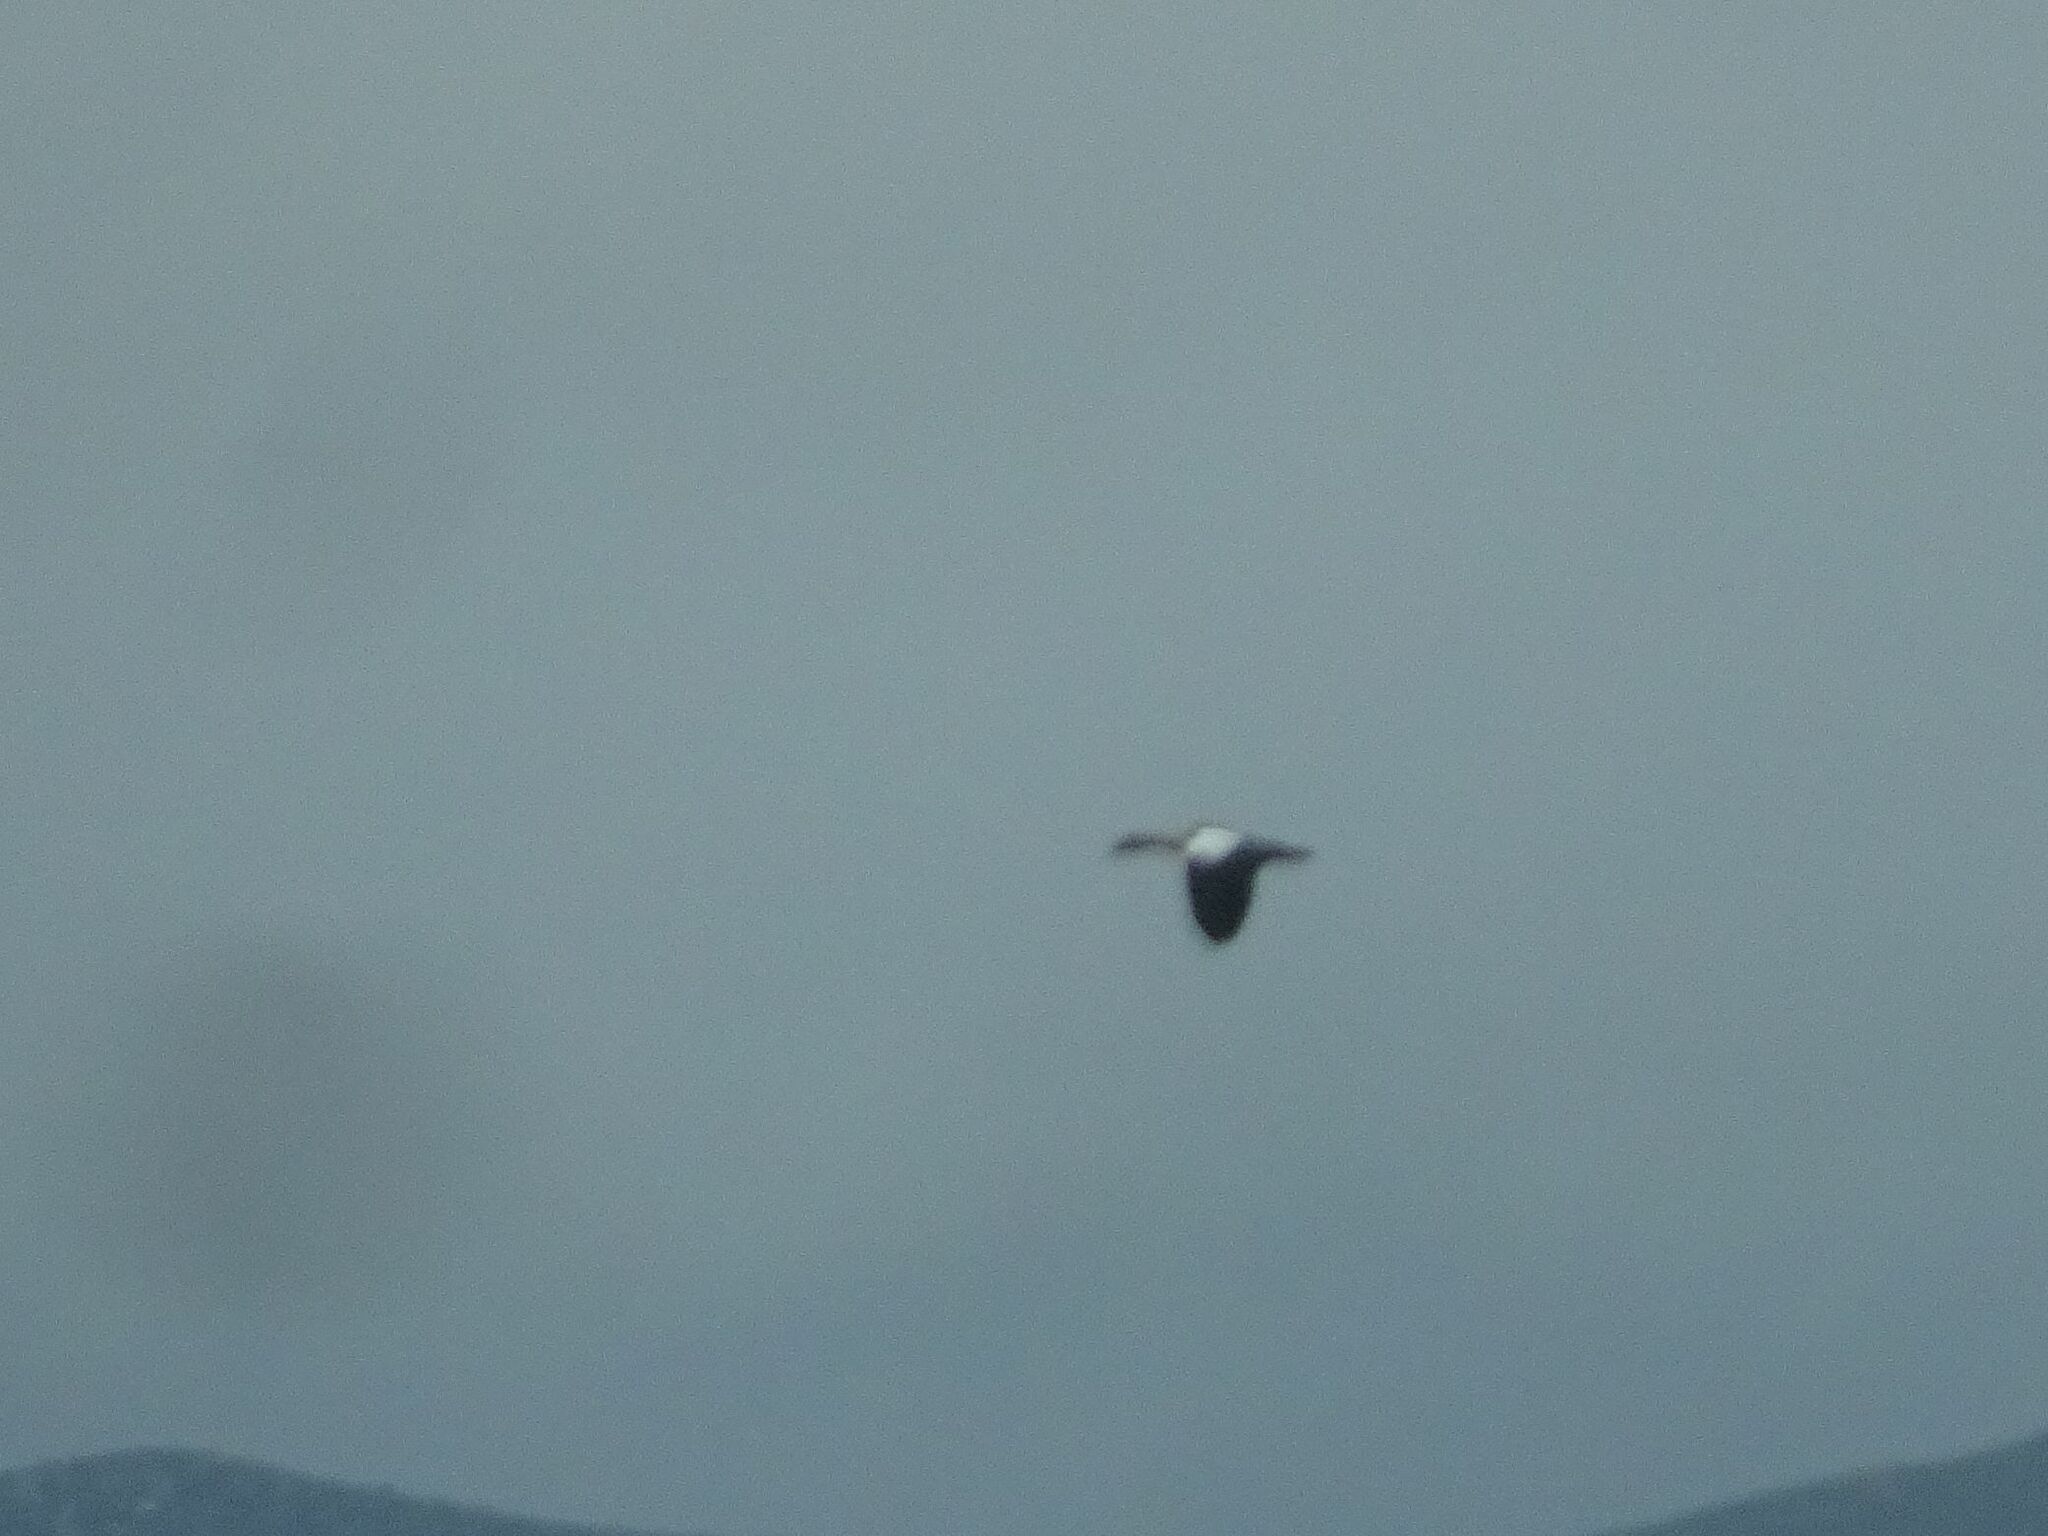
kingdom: Animalia
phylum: Chordata
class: Aves
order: Anseriformes
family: Anatidae
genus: Alopochen
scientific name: Alopochen aegyptiaca
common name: Egyptian goose
